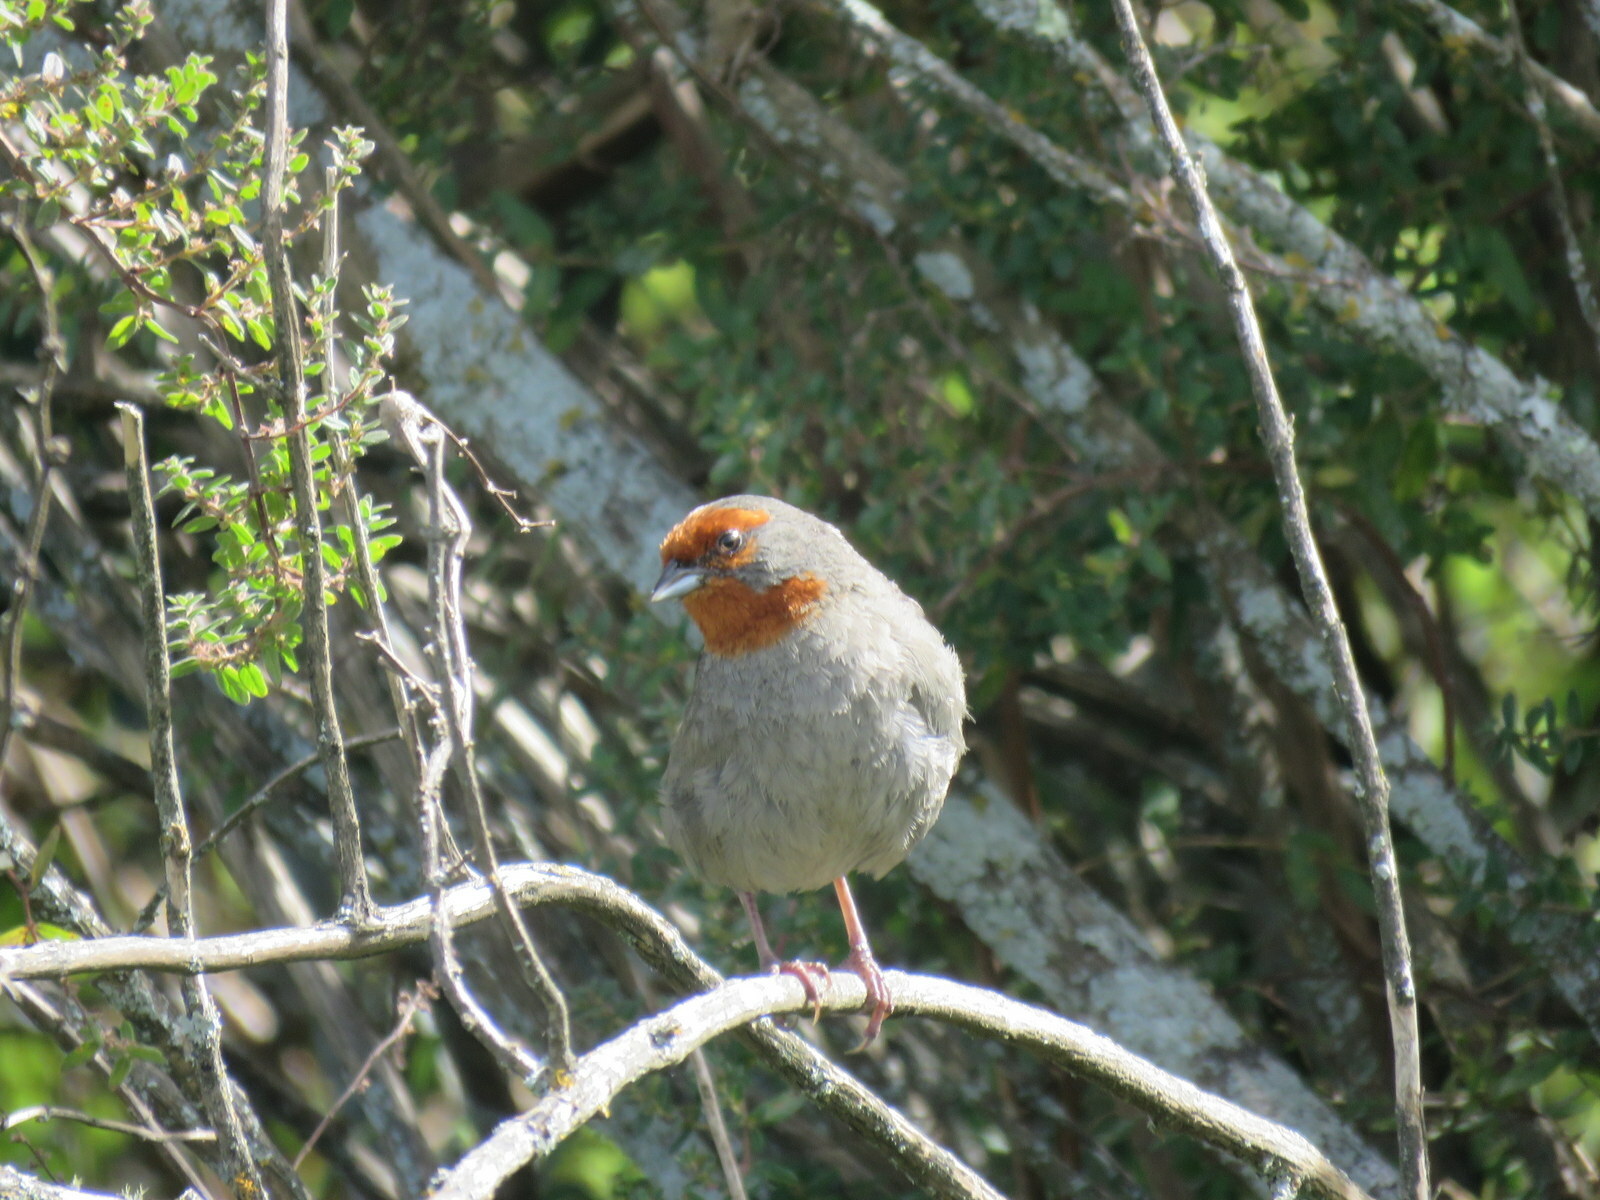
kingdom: Animalia
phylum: Chordata
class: Aves
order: Passeriformes
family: Thraupidae
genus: Poospiza
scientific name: Poospiza baeri
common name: Tucuman mountain-finch
